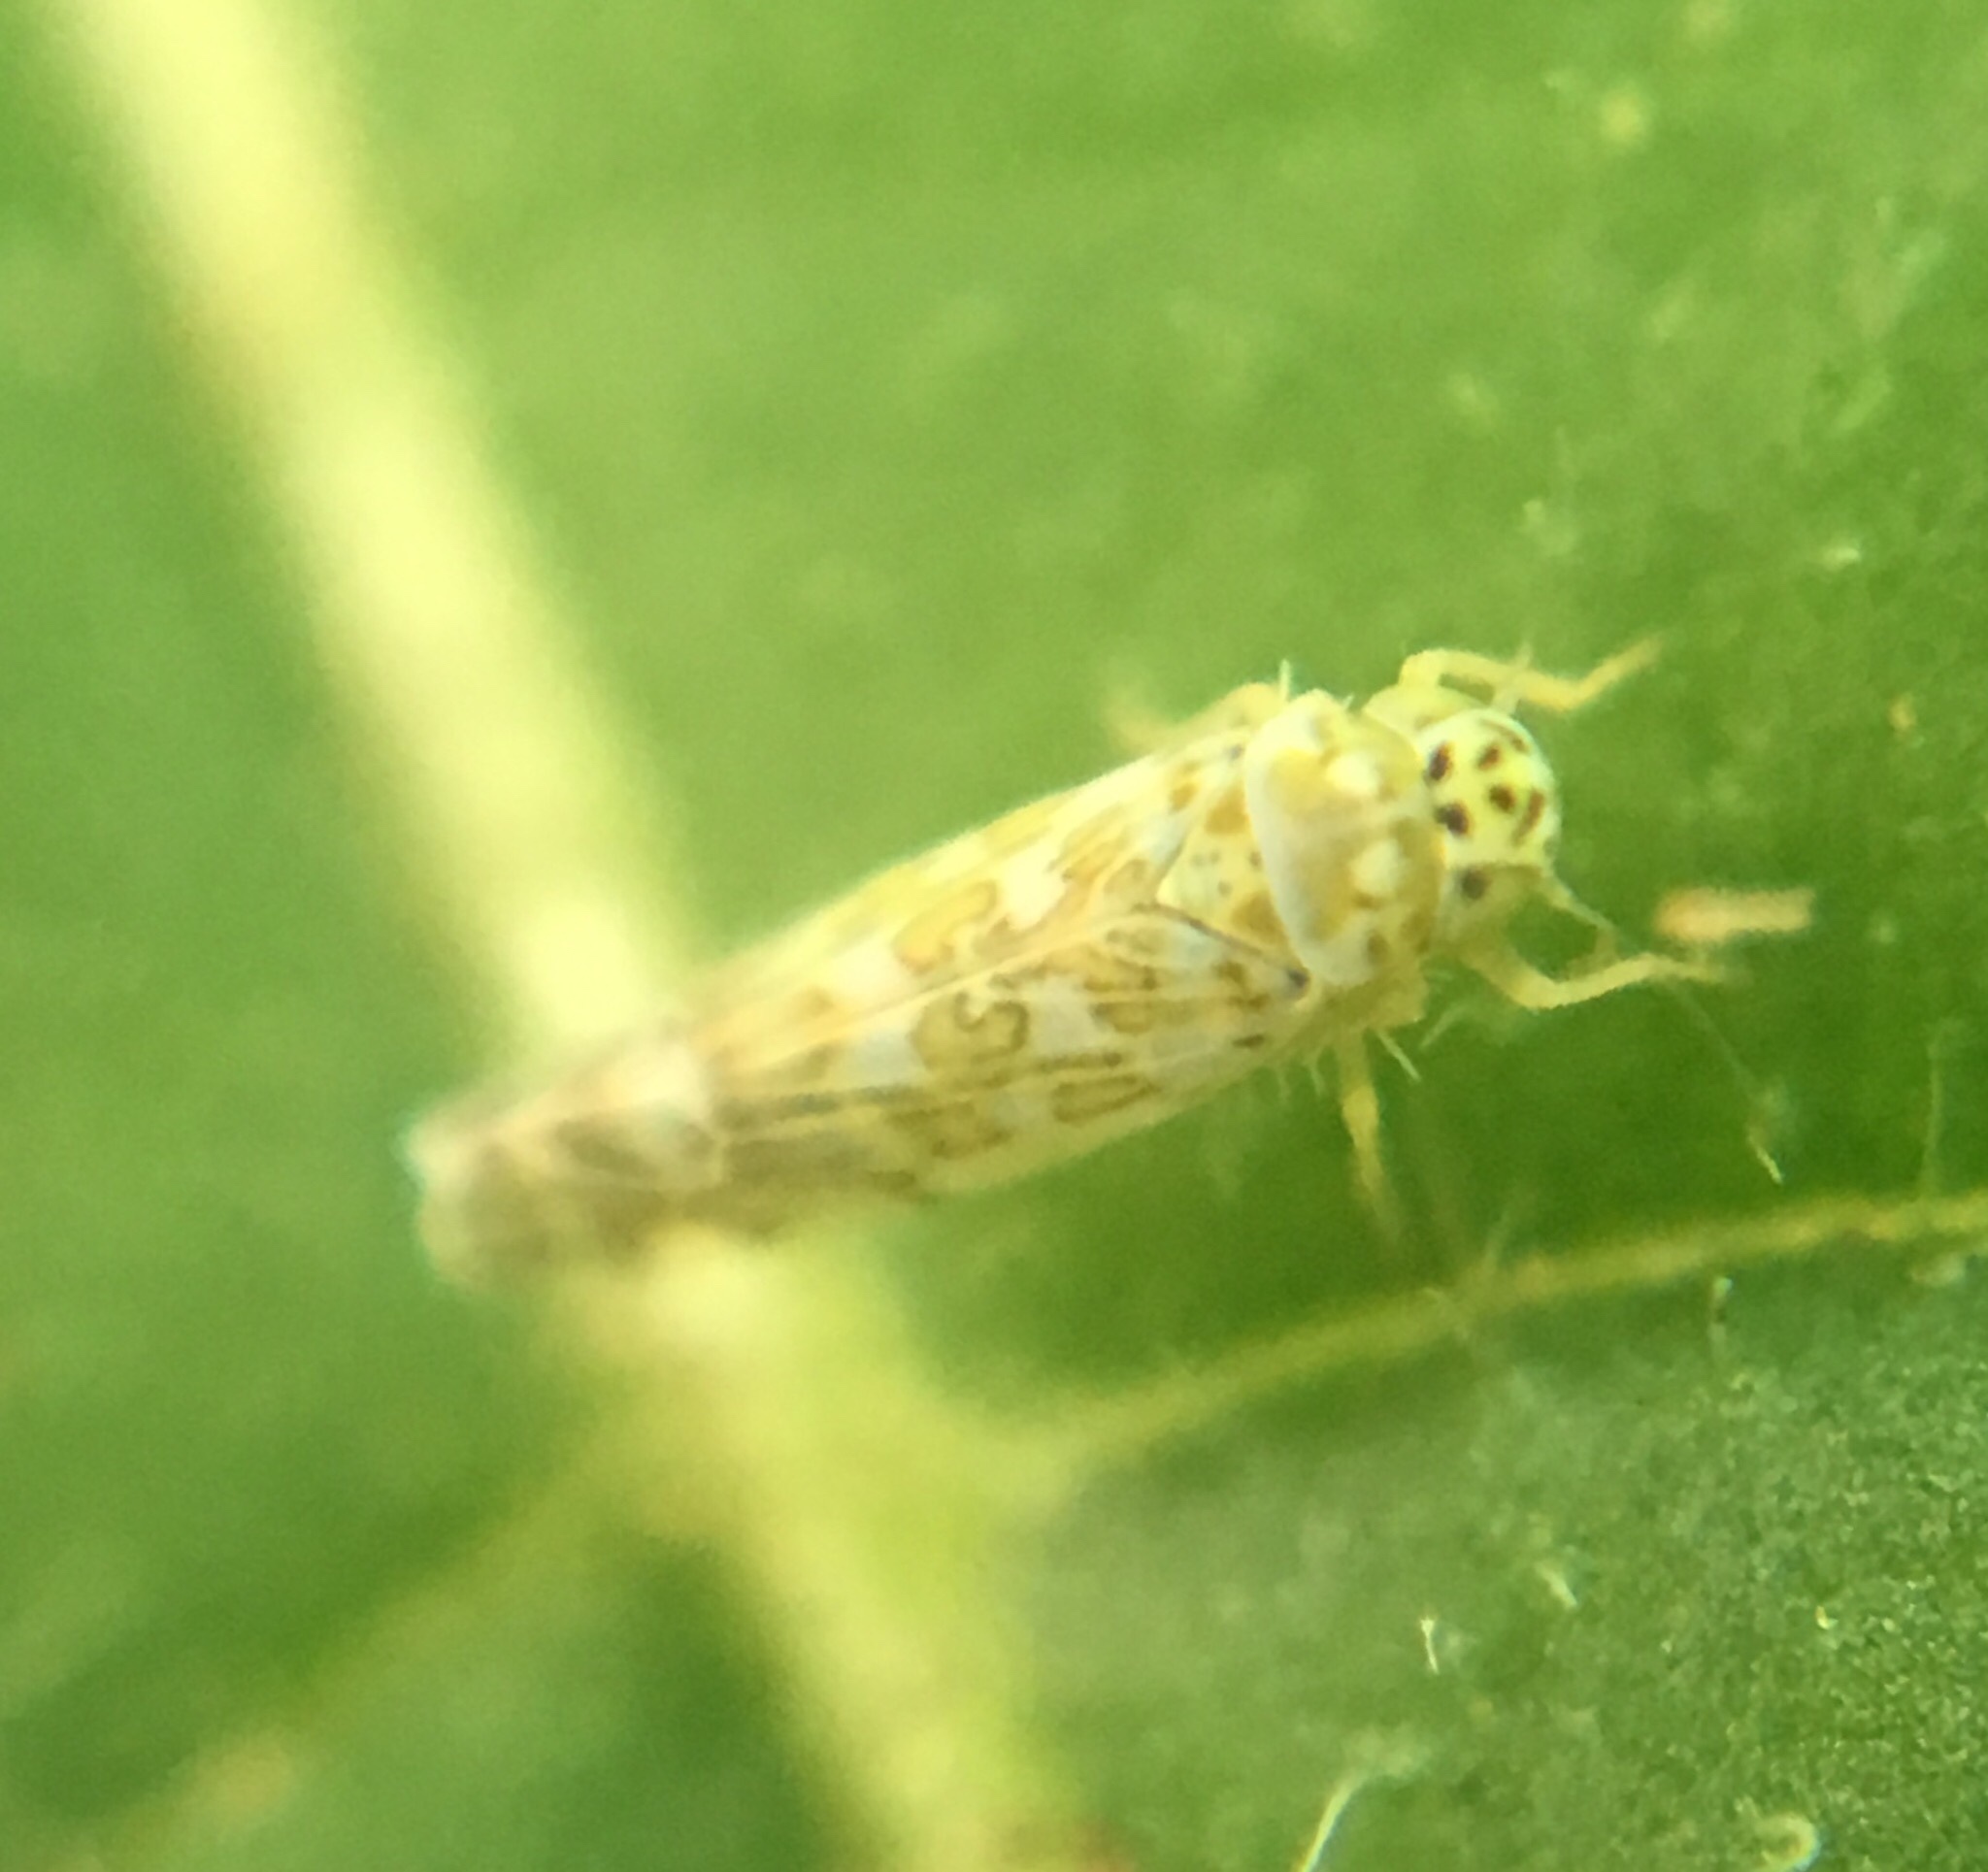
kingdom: Animalia
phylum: Arthropoda
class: Insecta
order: Hemiptera
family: Cicadellidae
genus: Eupteryx
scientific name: Eupteryx decemnotata
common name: Ligurian leafhopper
